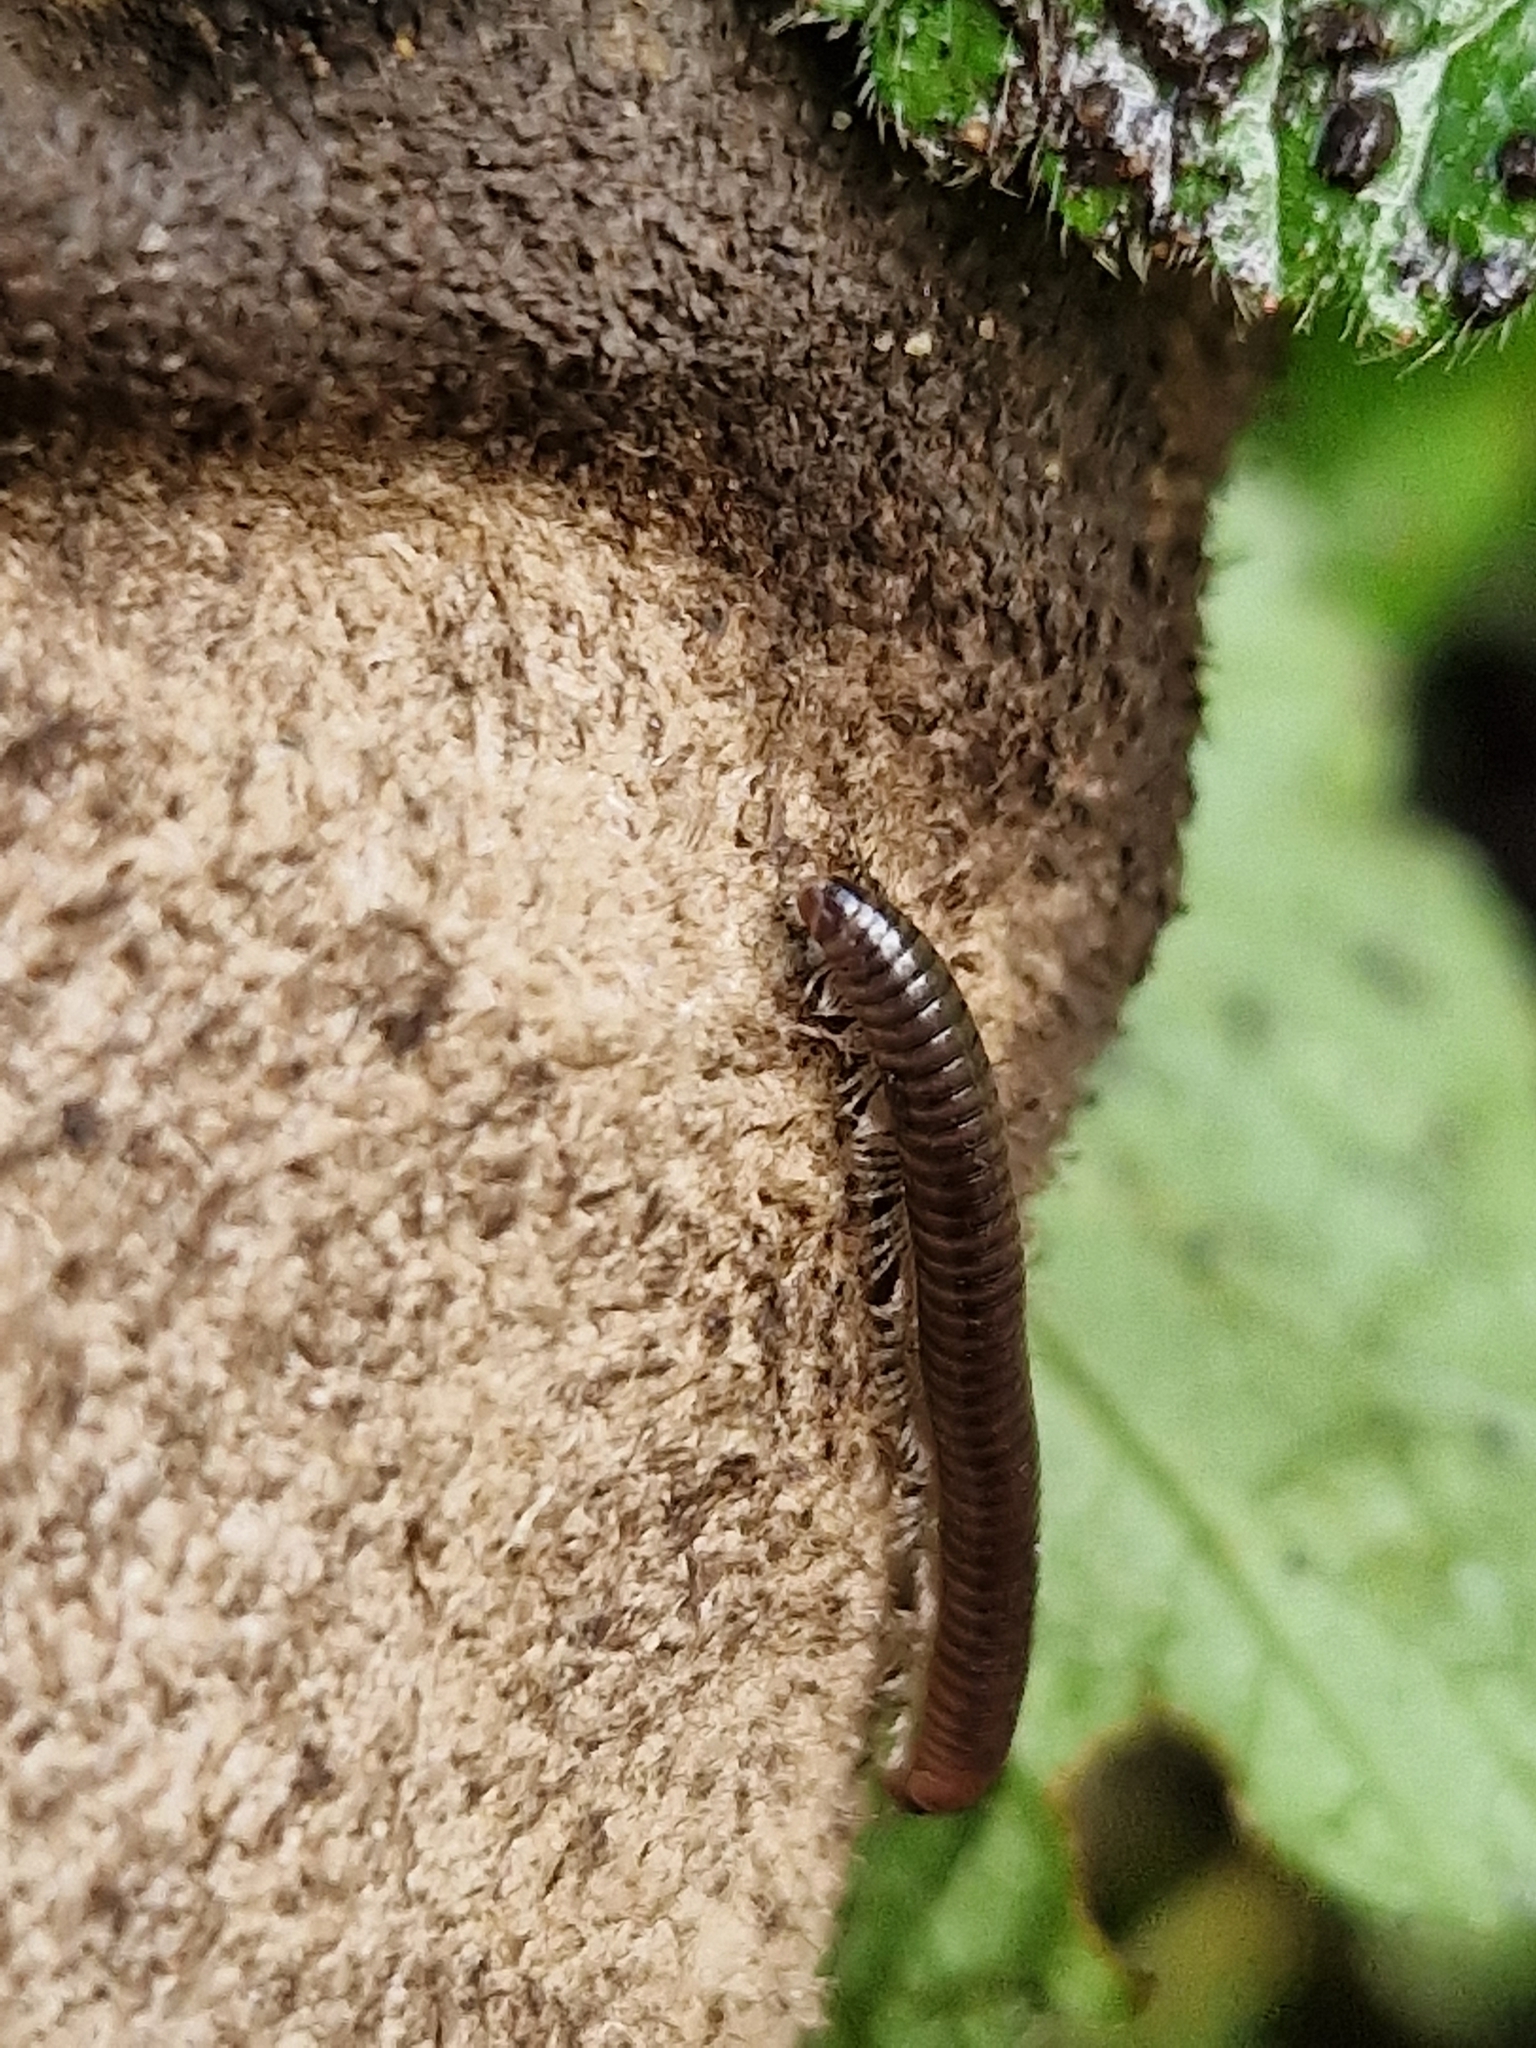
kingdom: Animalia
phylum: Arthropoda
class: Diplopoda
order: Julida
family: Julidae
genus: Cylindroiulus
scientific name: Cylindroiulus caeruleocinctus
